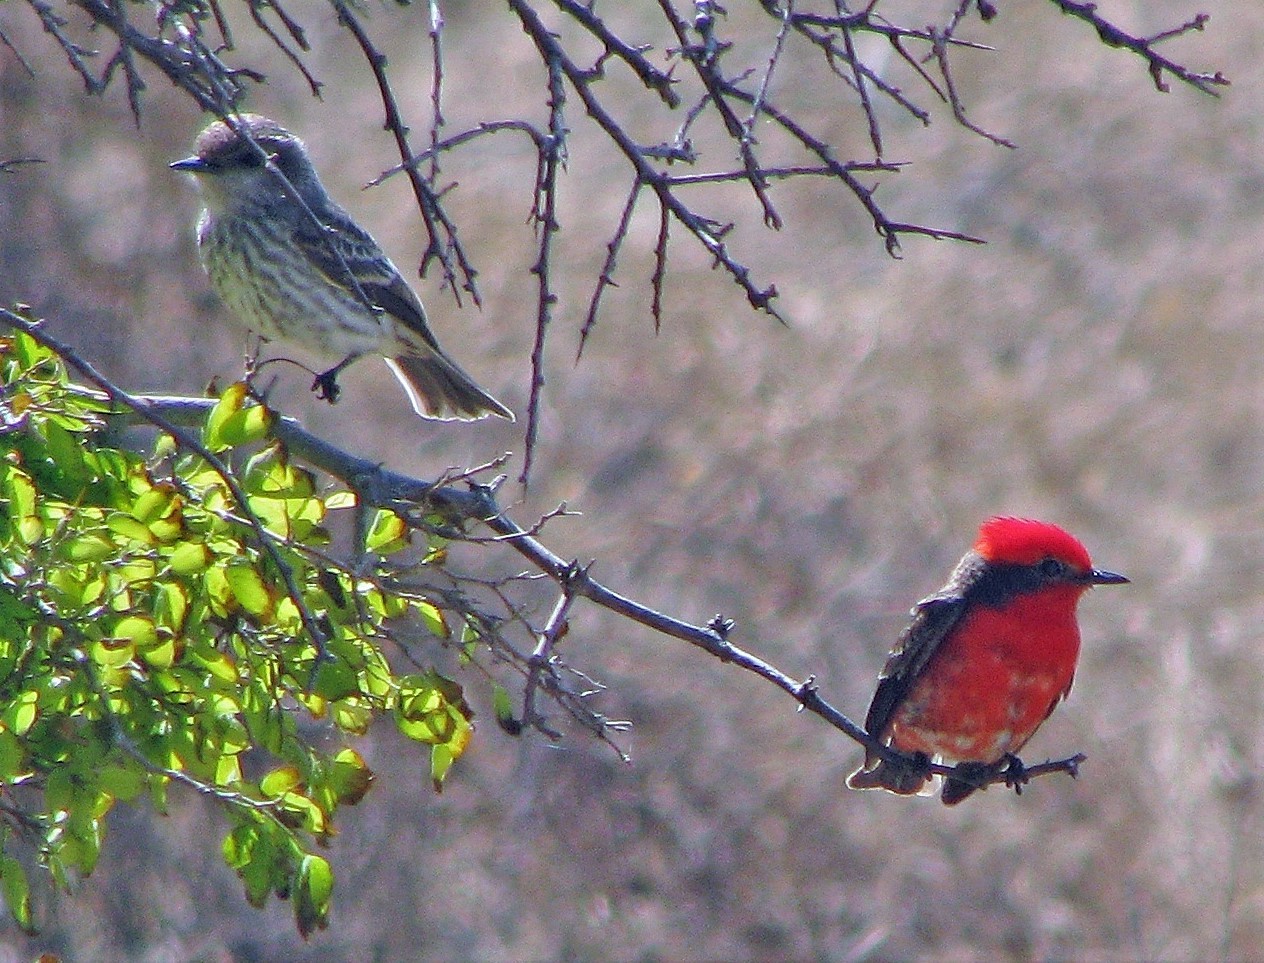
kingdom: Animalia
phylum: Chordata
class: Aves
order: Passeriformes
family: Tyrannidae
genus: Pyrocephalus
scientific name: Pyrocephalus rubinus
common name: Vermilion flycatcher
